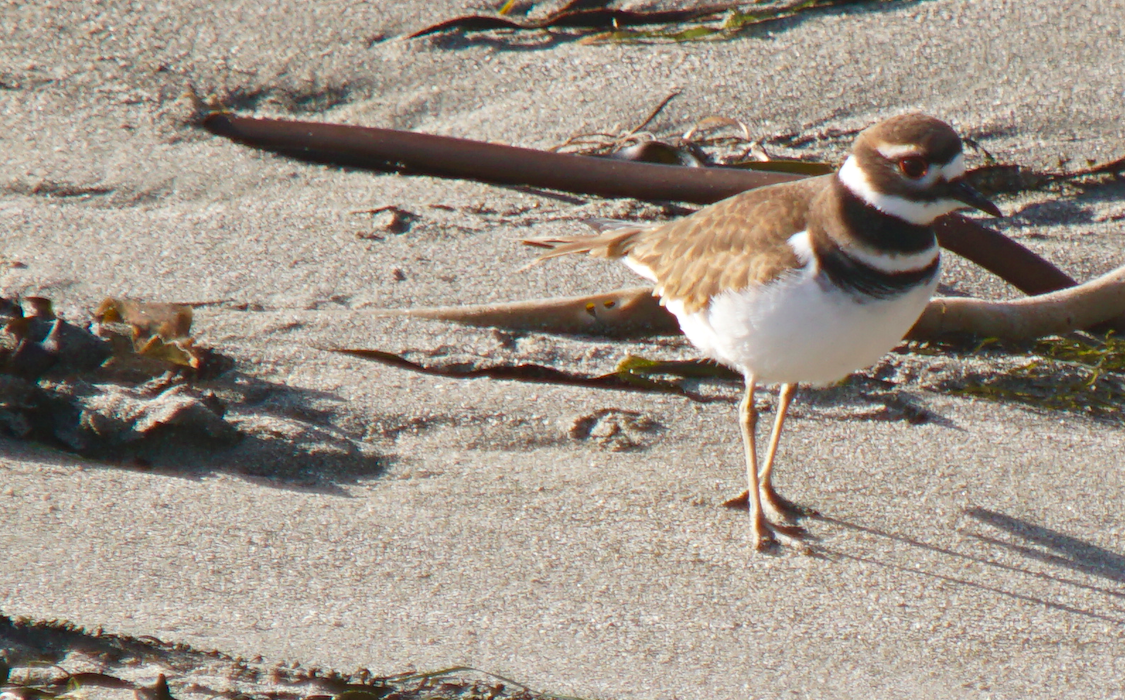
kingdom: Animalia
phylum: Chordata
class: Aves
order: Charadriiformes
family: Charadriidae
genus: Charadrius
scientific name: Charadrius vociferus
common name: Killdeer
